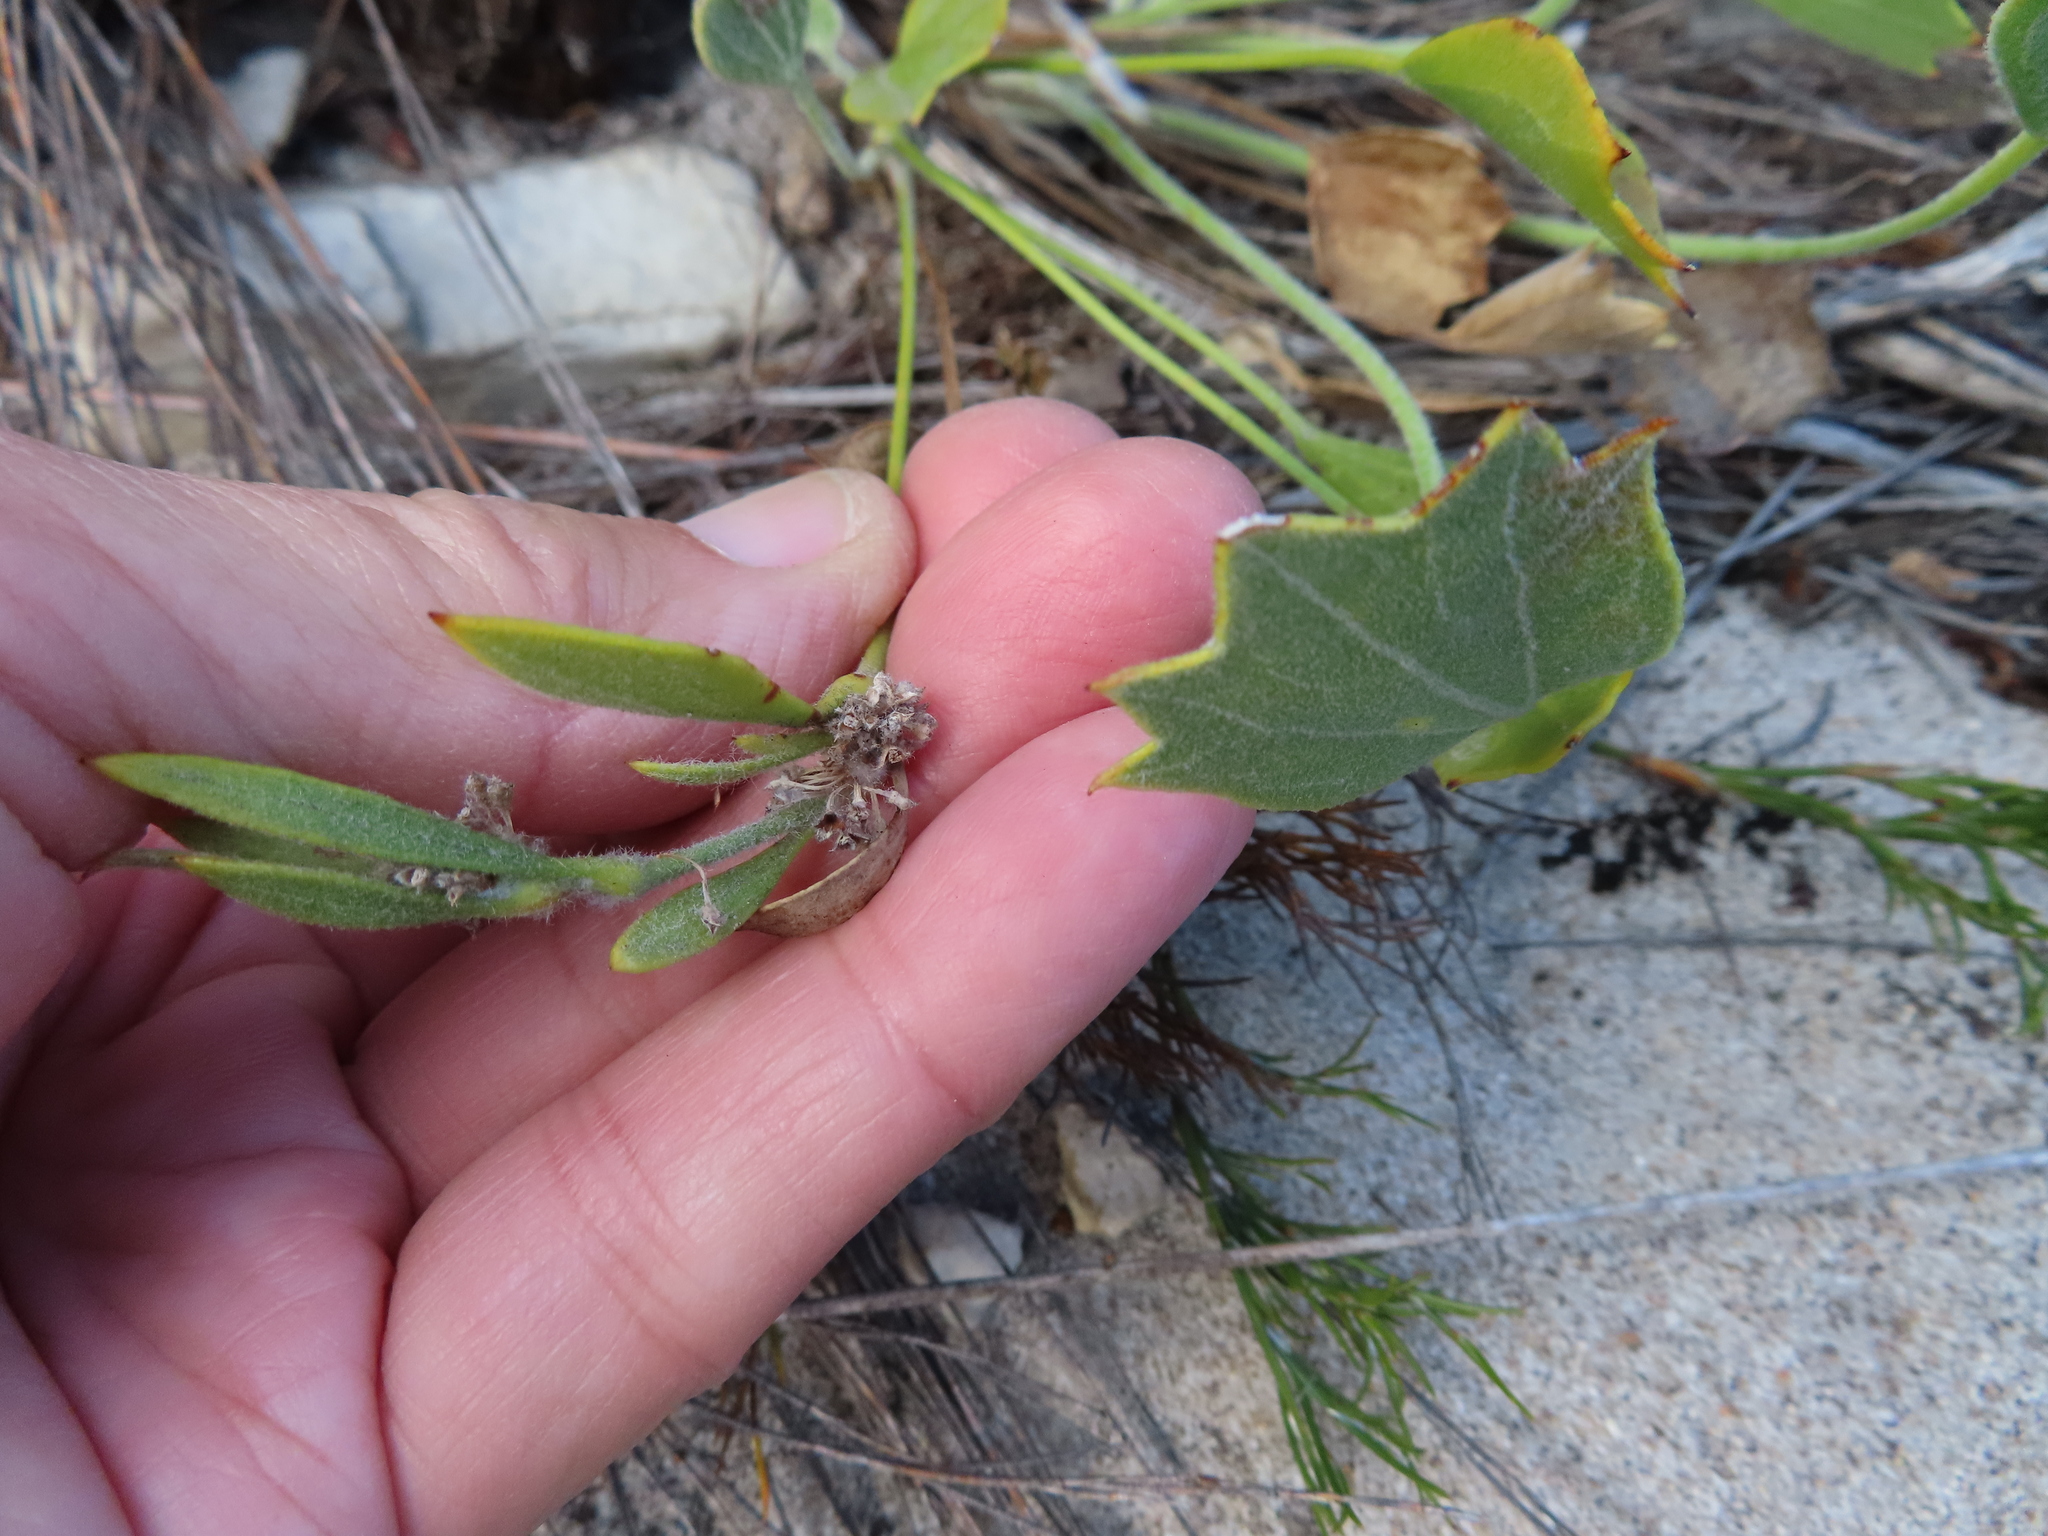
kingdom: Plantae
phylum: Tracheophyta
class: Magnoliopsida
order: Apiales
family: Apiaceae
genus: Centella
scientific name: Centella difformis
